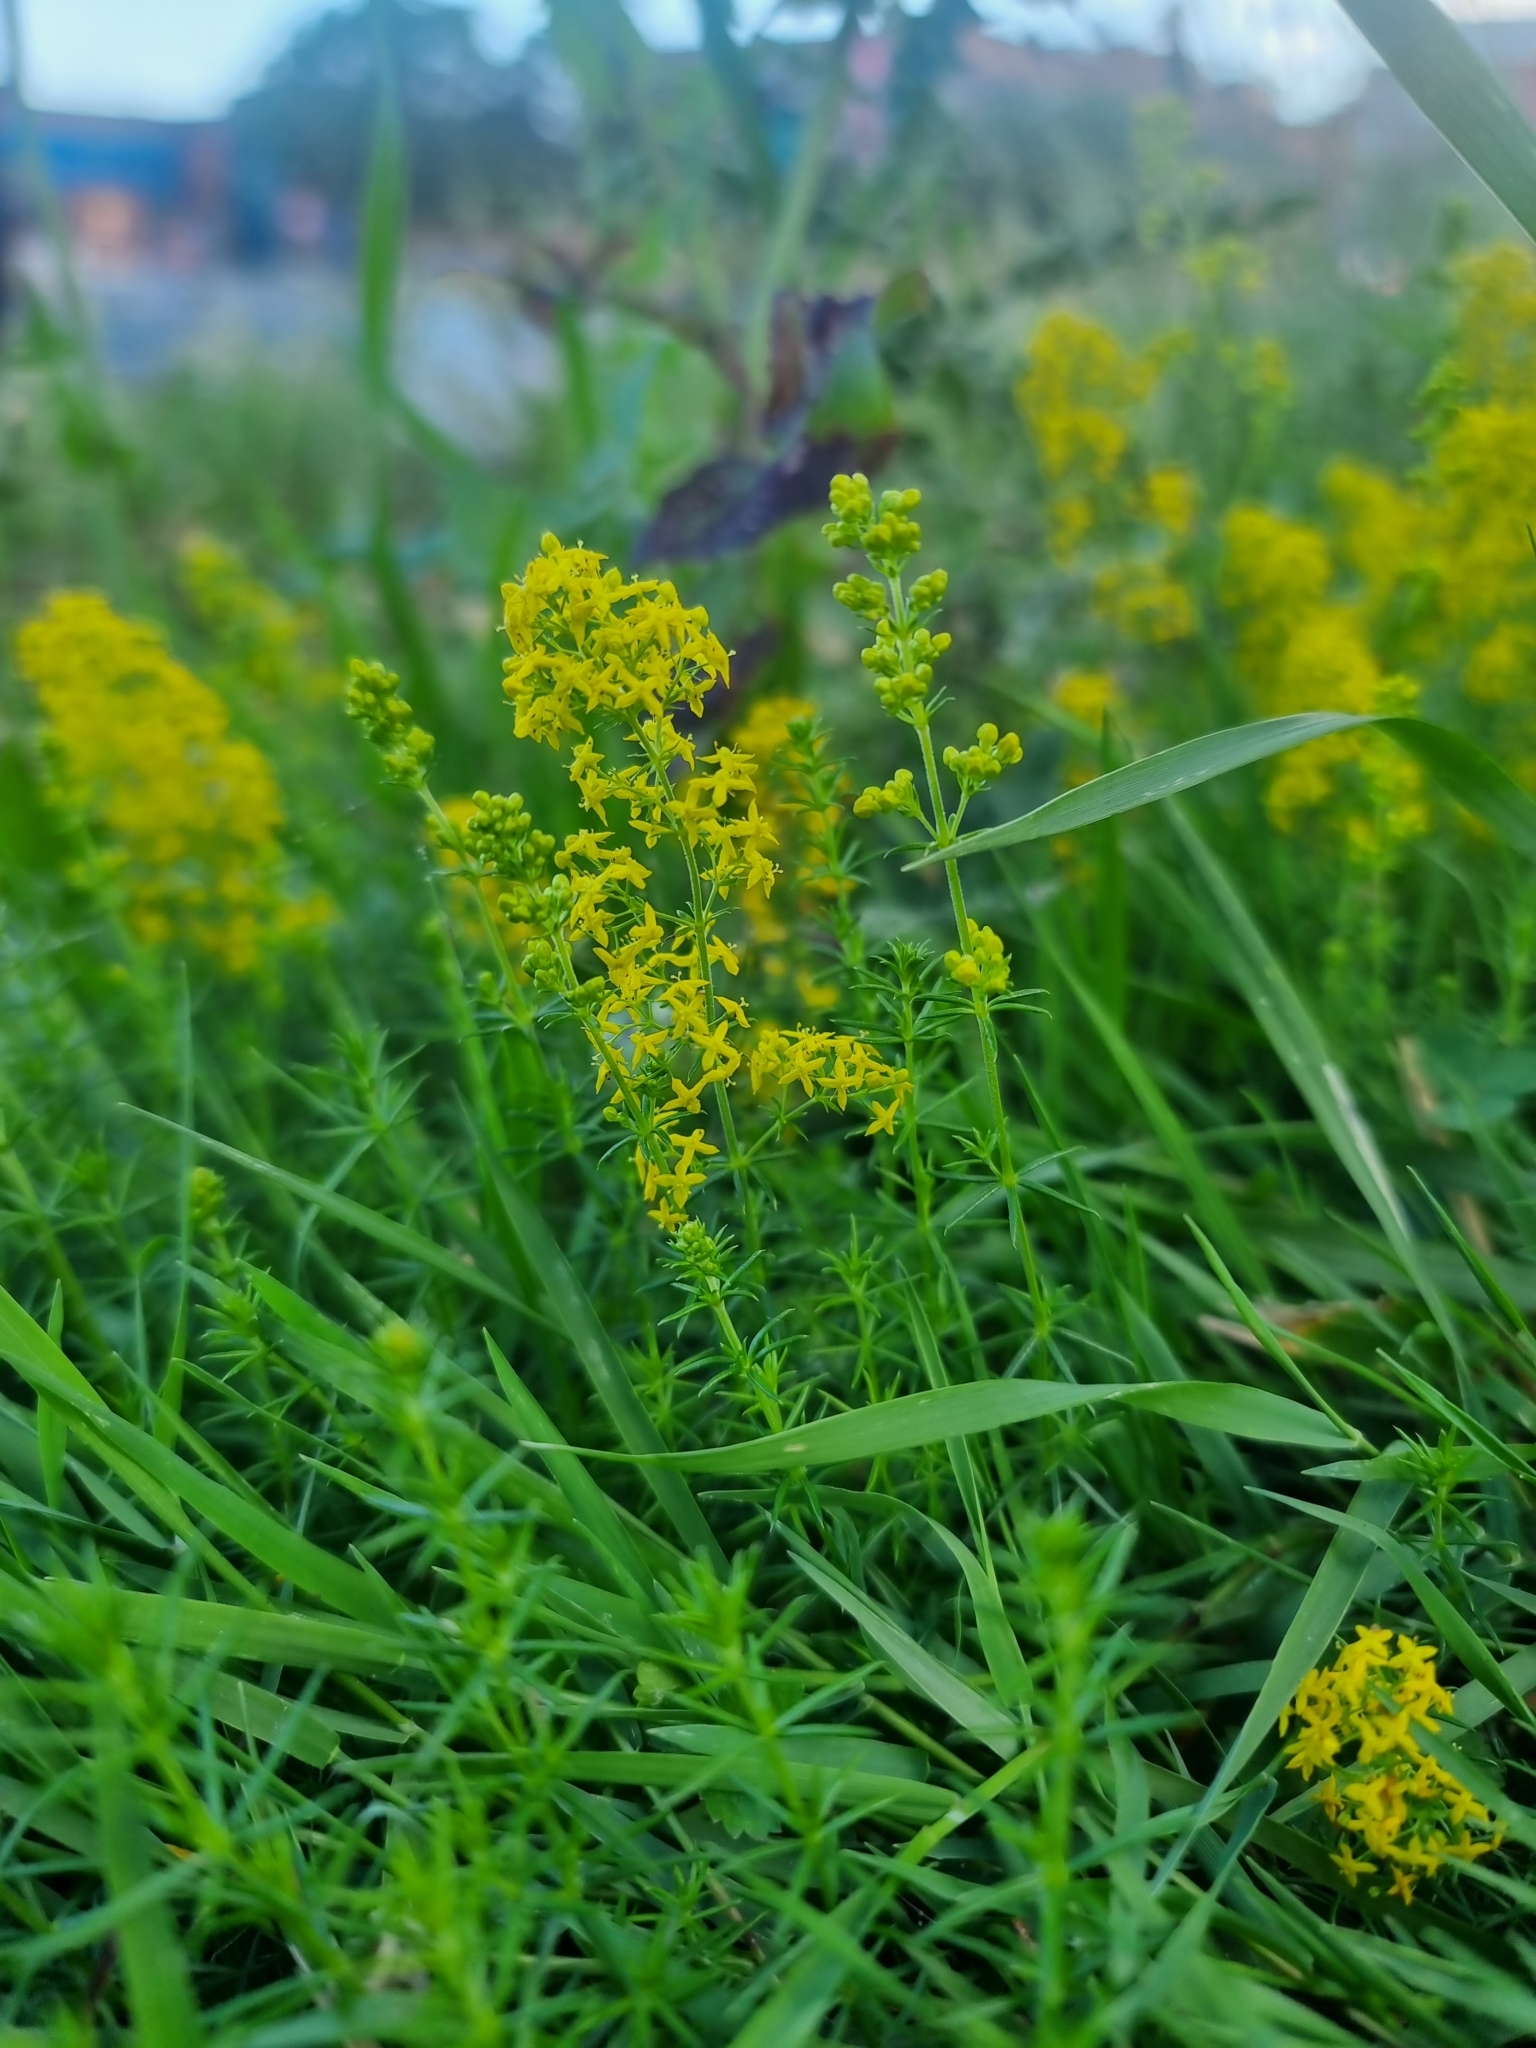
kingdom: Plantae
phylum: Tracheophyta
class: Magnoliopsida
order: Gentianales
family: Rubiaceae
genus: Galium
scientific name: Galium verum
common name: Lady's bedstraw
